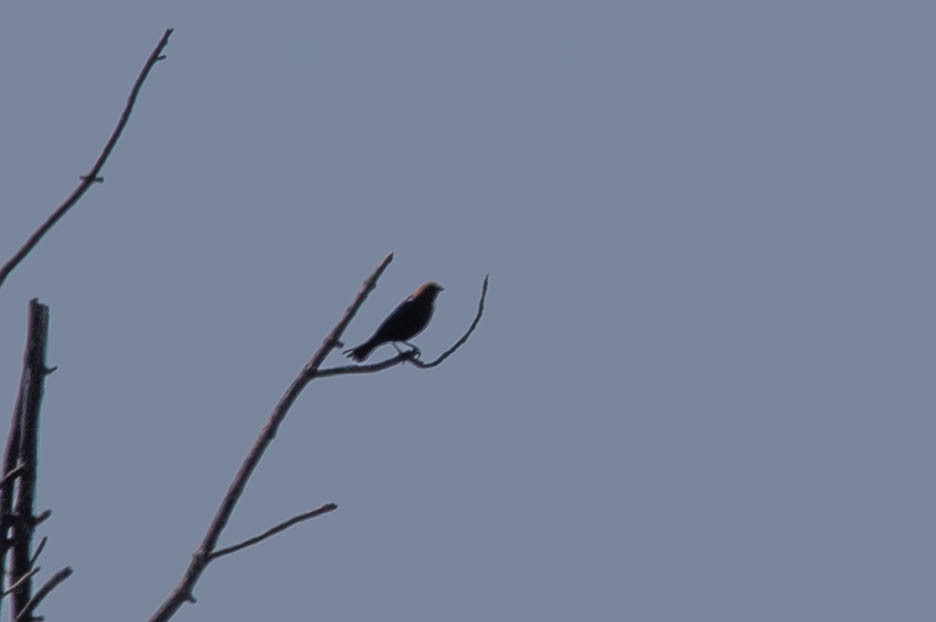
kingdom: Animalia
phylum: Chordata
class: Aves
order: Passeriformes
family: Icteridae
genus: Molothrus
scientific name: Molothrus ater
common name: Brown-headed cowbird
